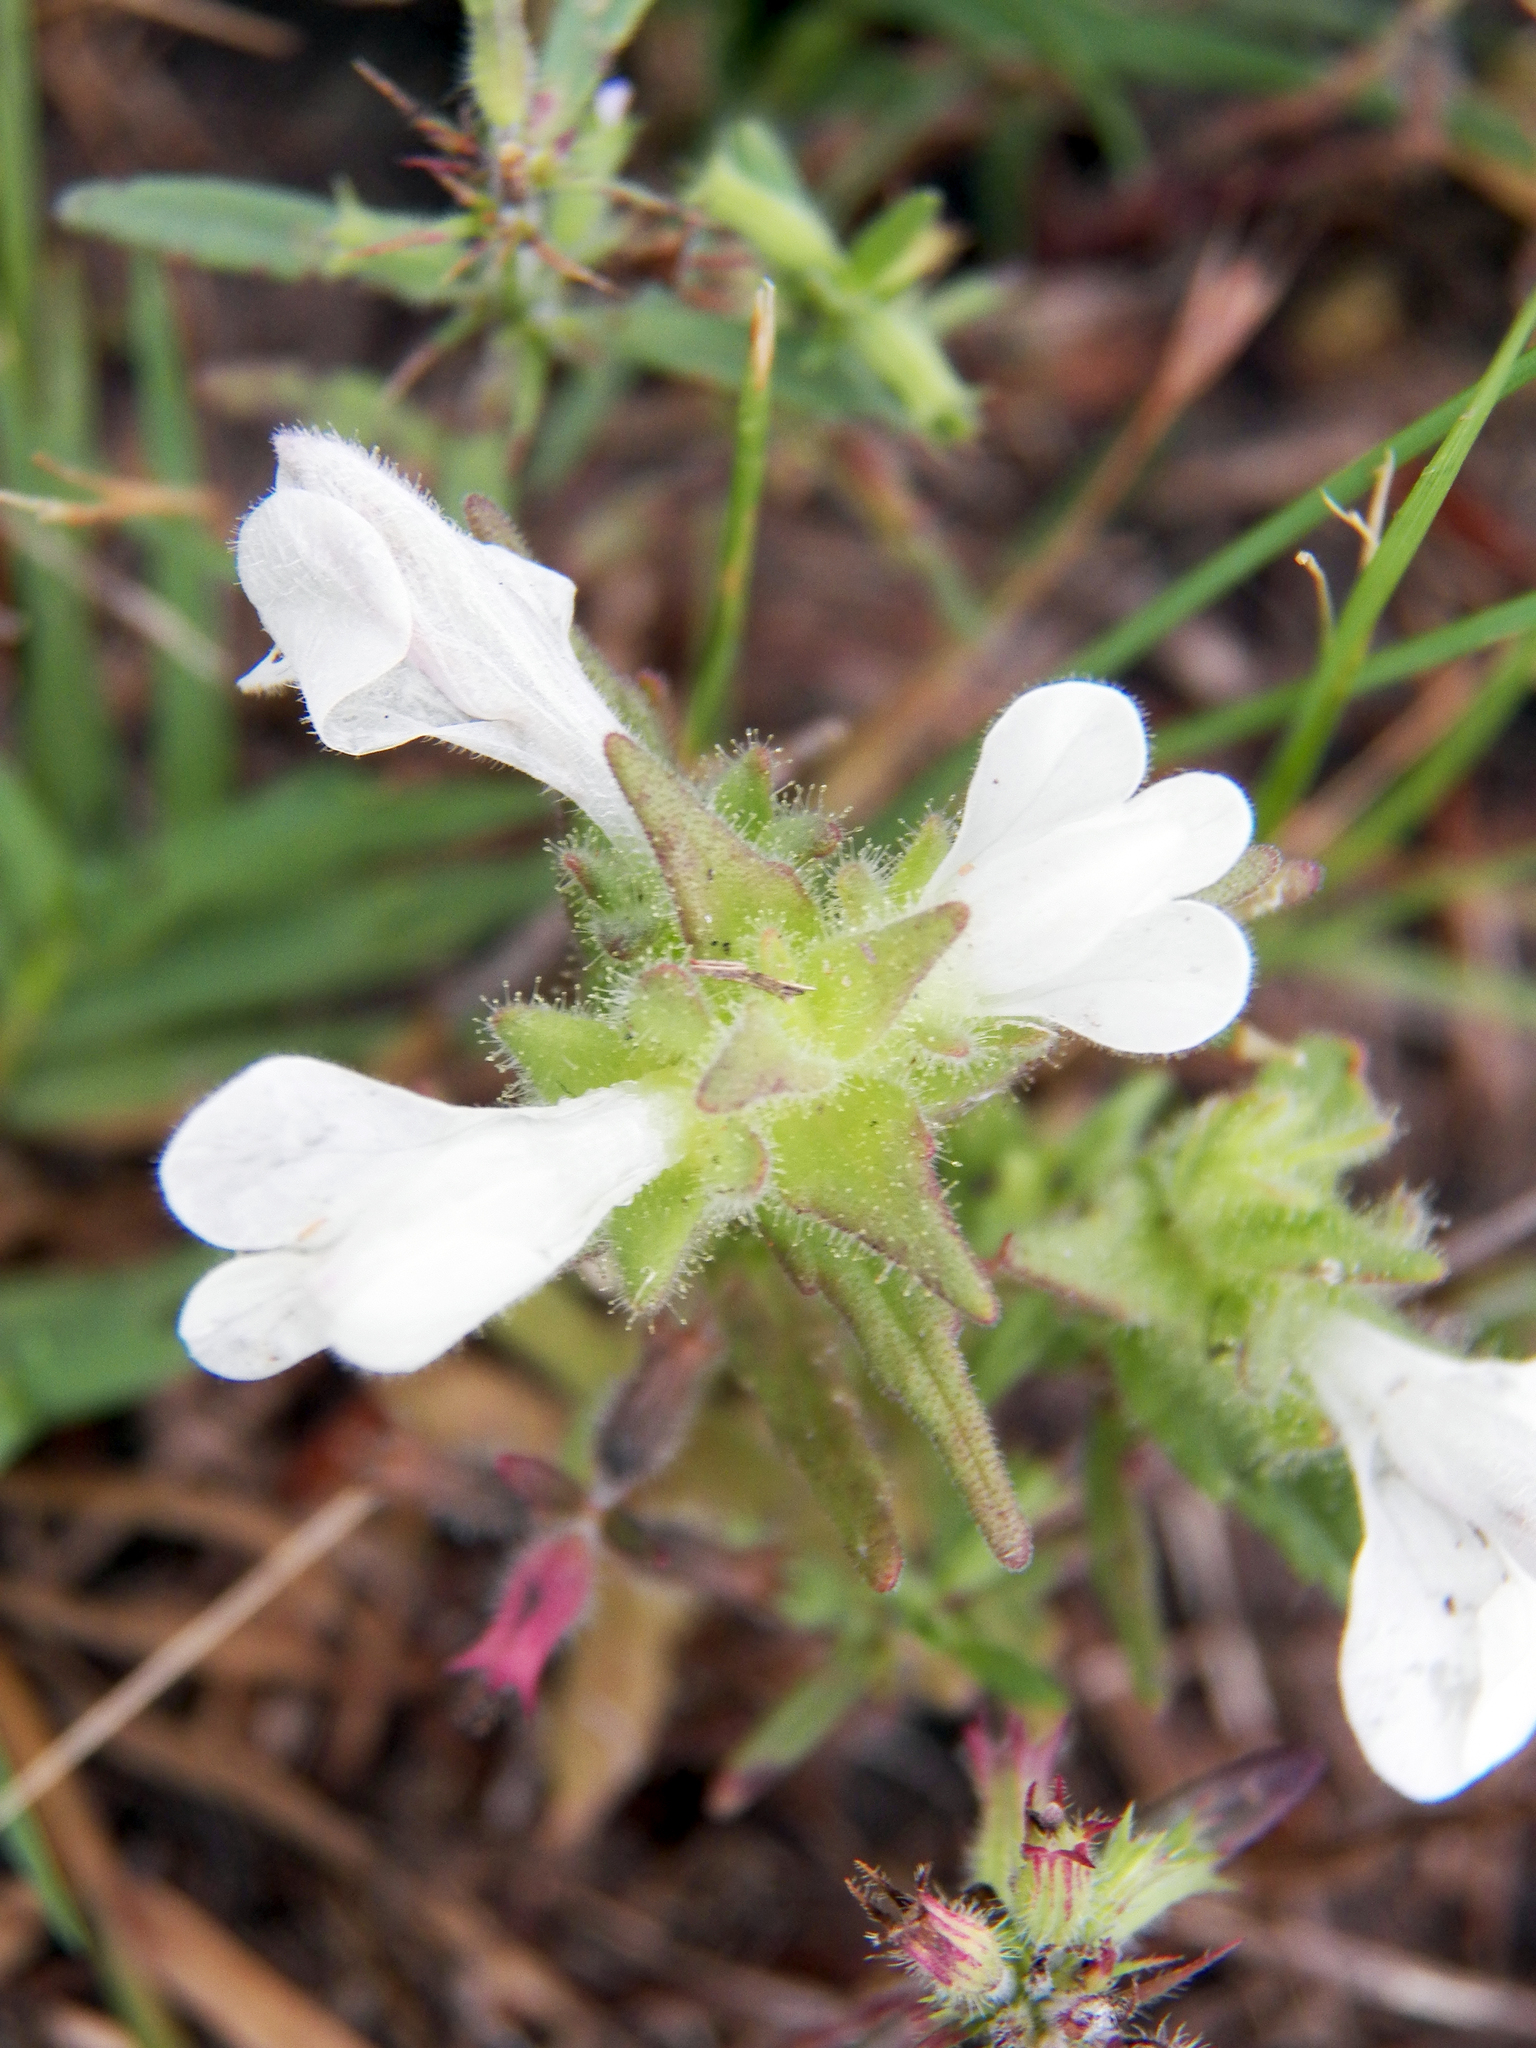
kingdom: Plantae
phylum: Tracheophyta
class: Magnoliopsida
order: Lamiales
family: Orobanchaceae
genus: Bellardia
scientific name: Bellardia trixago
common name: Mediterranean lineseed
